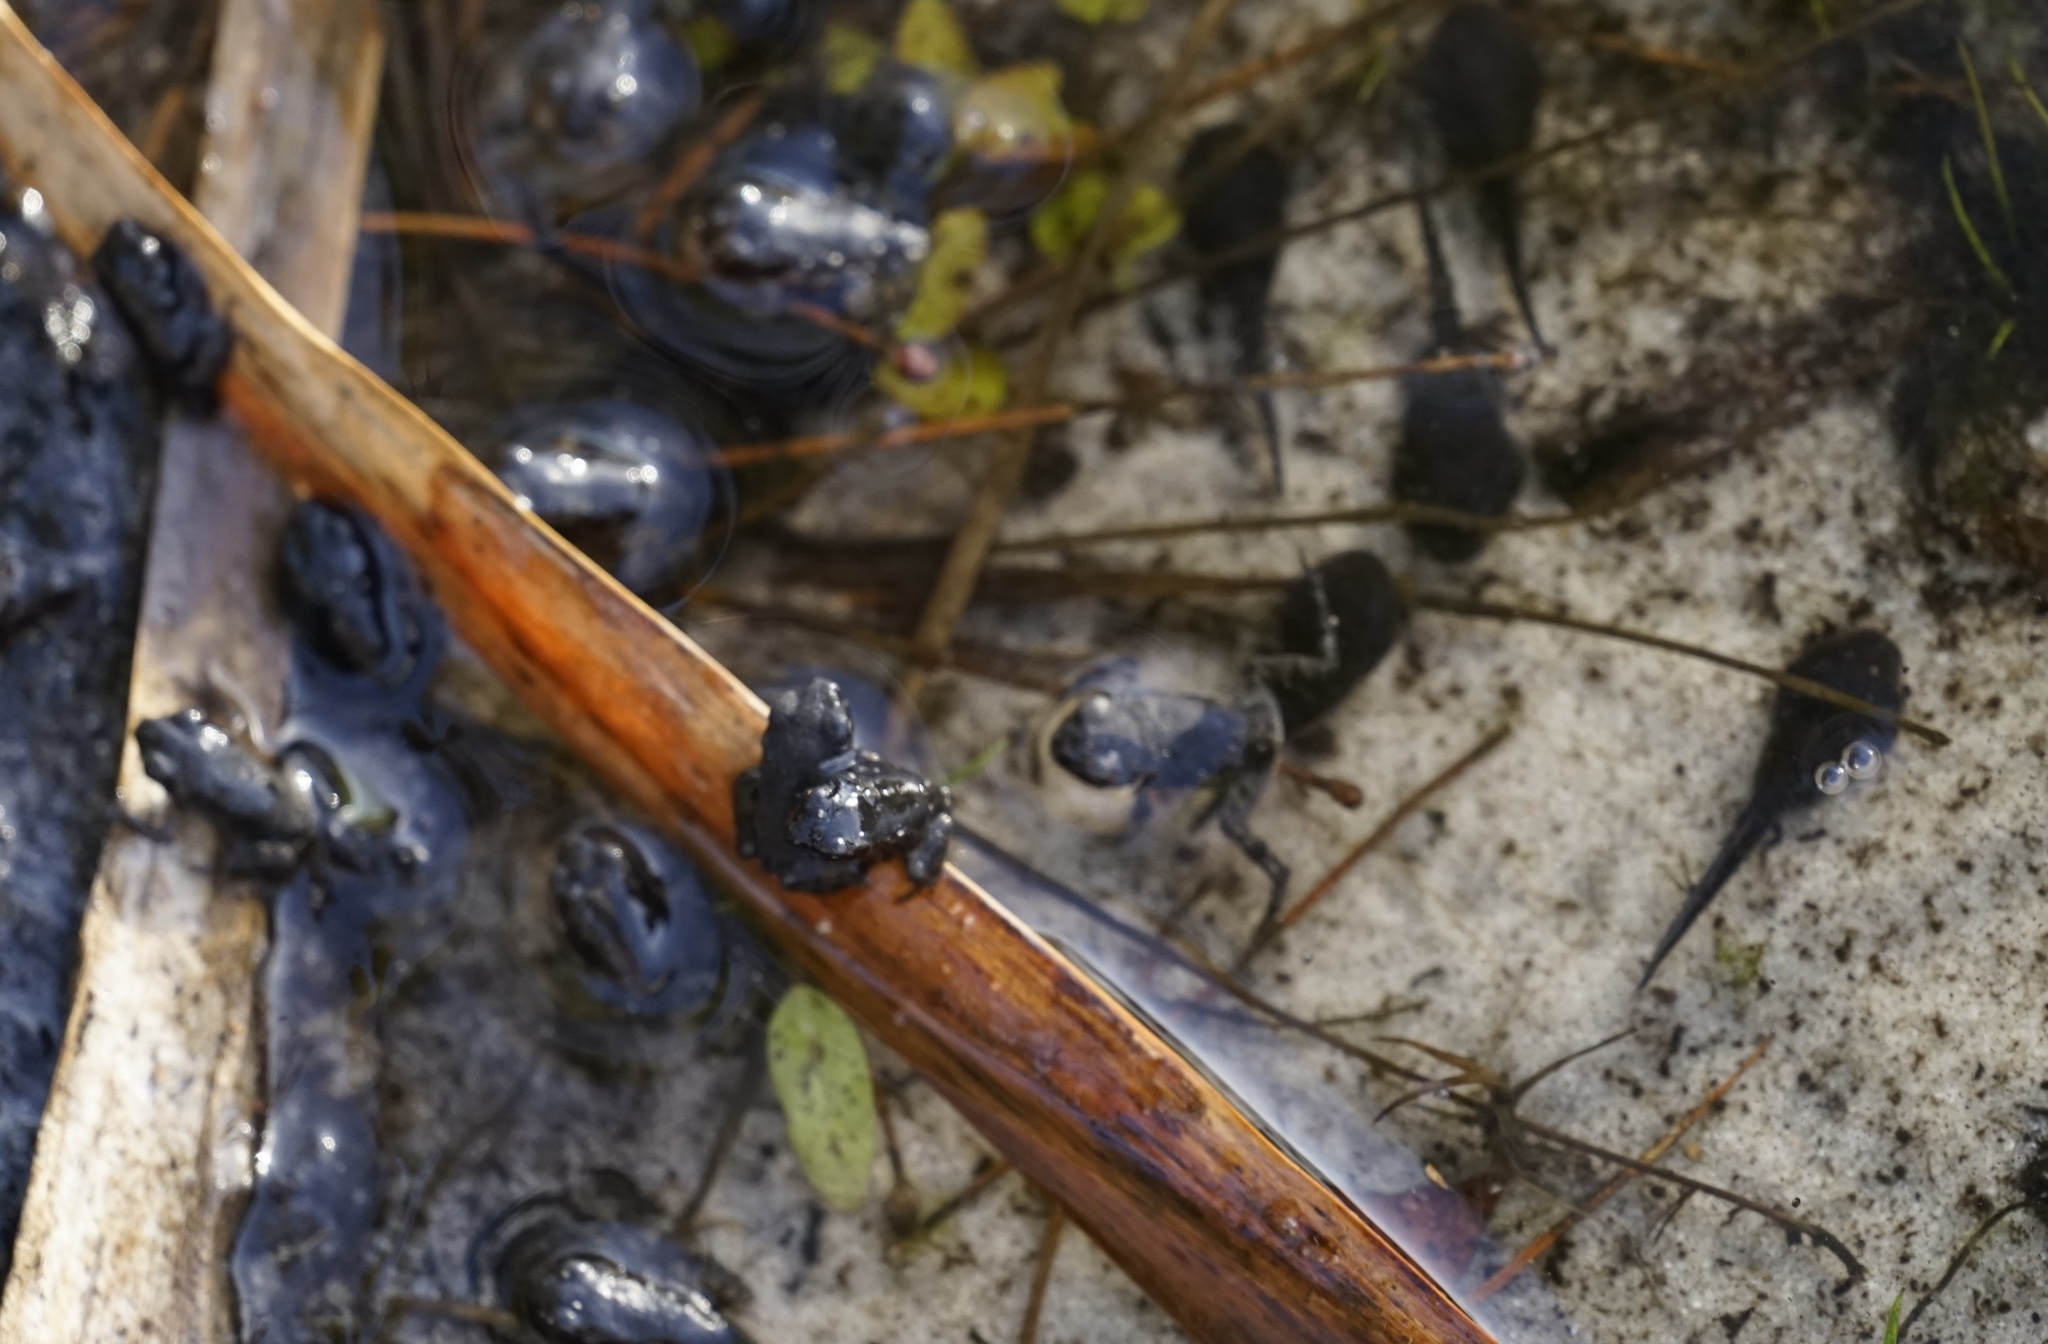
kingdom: Animalia
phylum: Chordata
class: Amphibia
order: Anura
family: Bufonidae
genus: Rhinella
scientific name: Rhinella marina
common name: Cane toad
